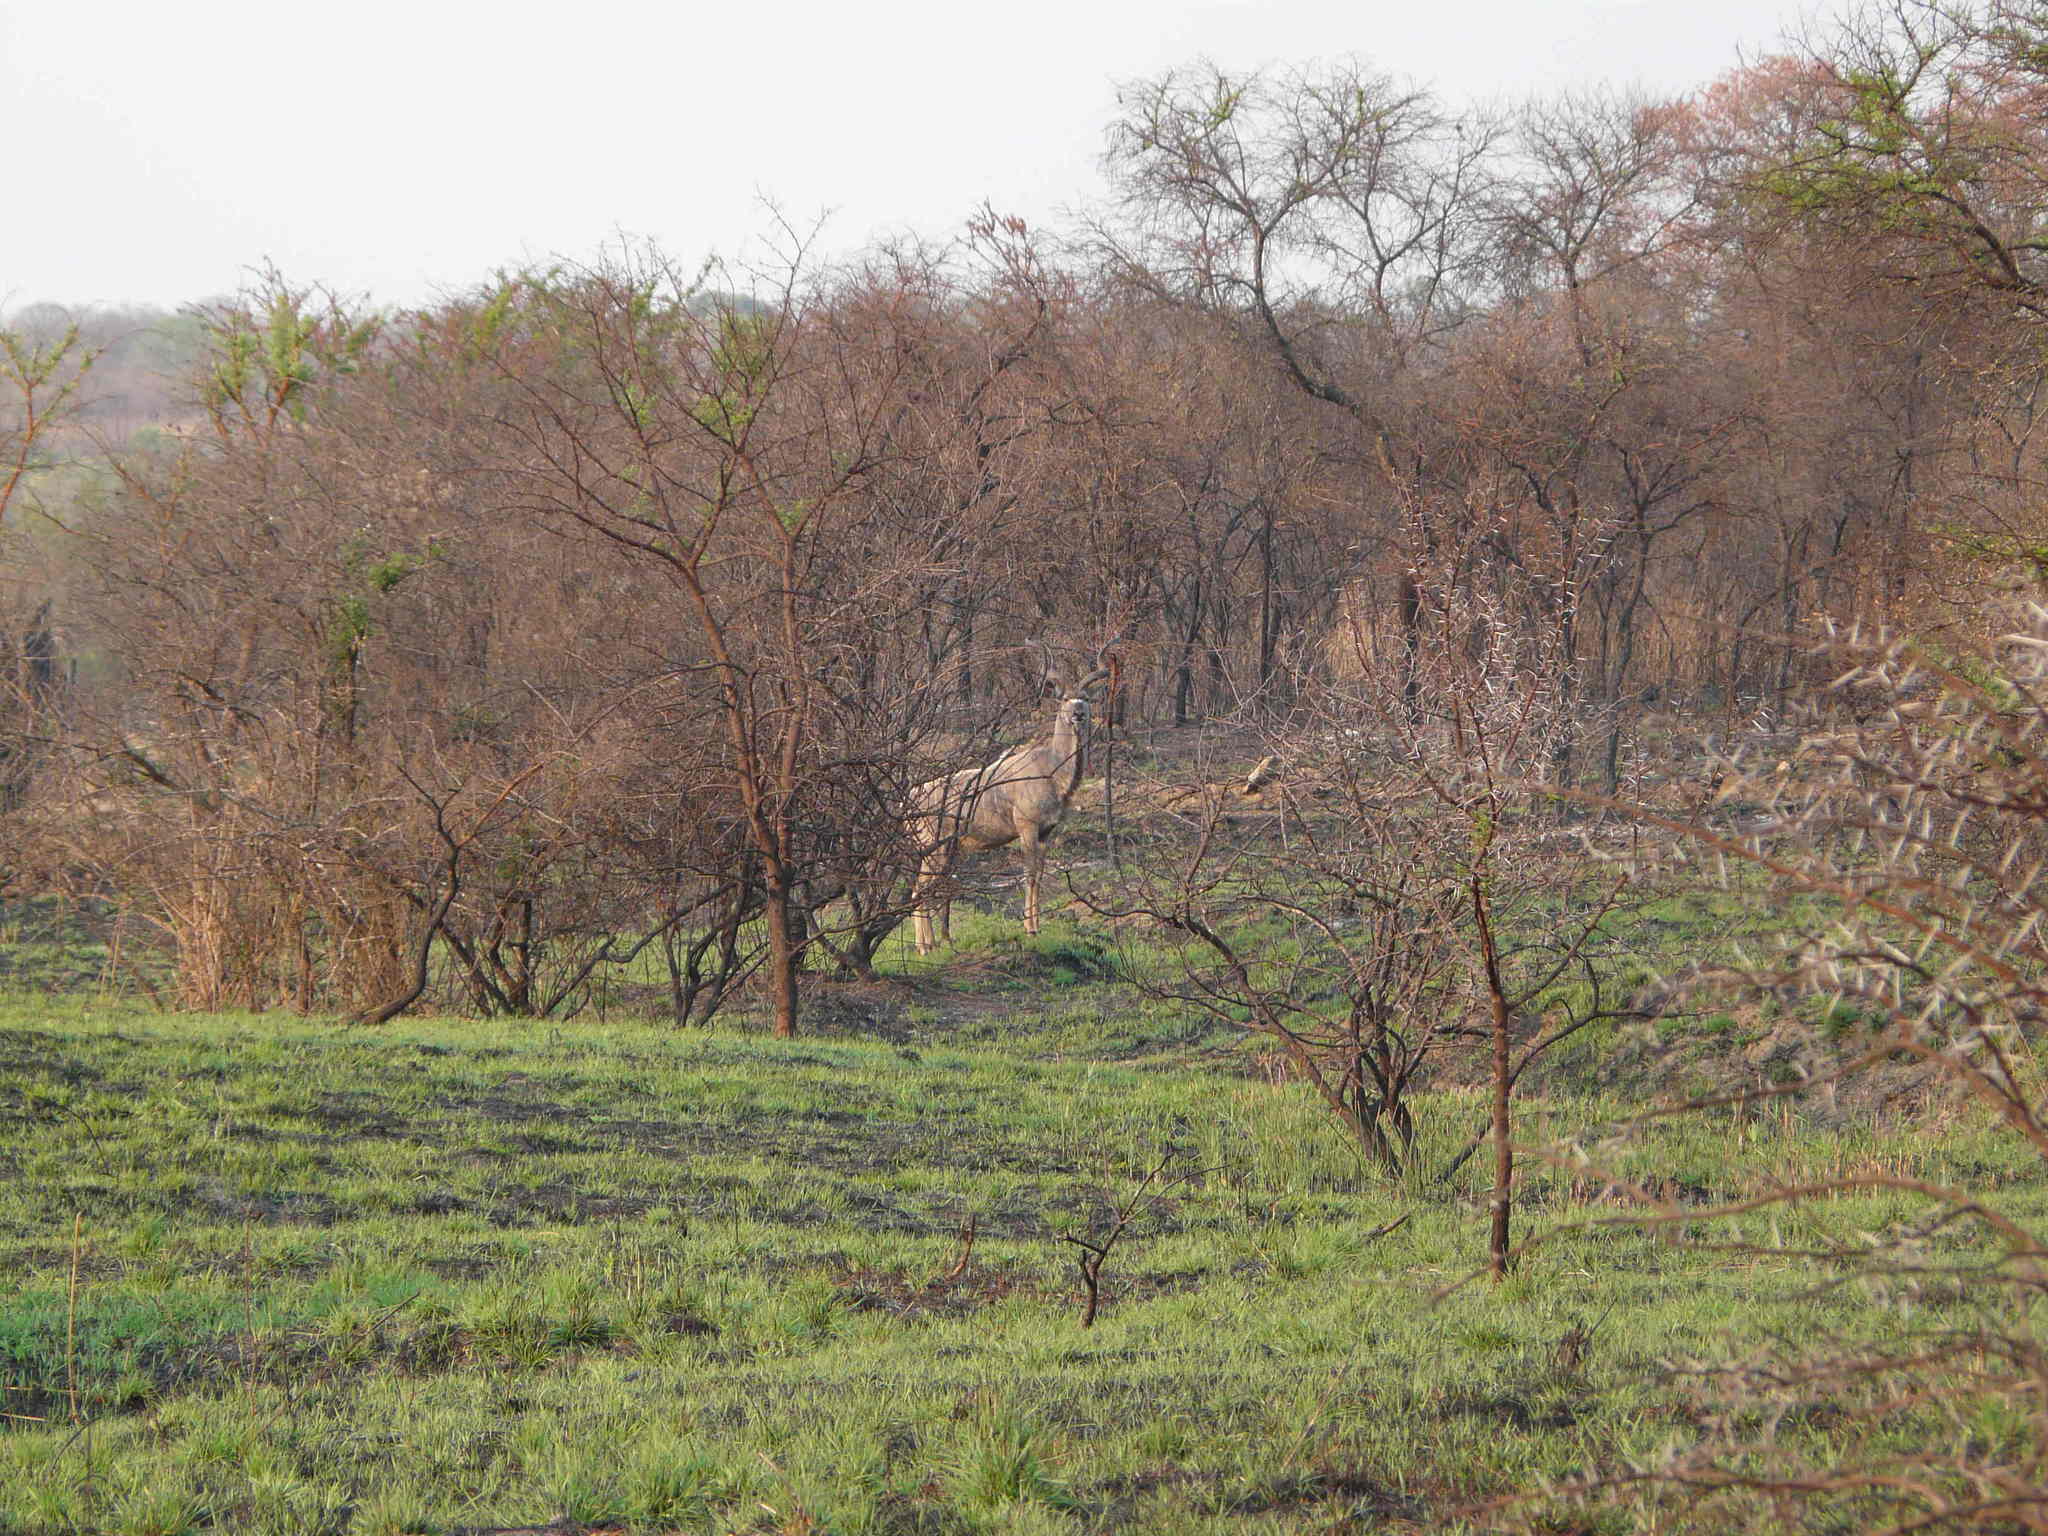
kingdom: Animalia
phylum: Chordata
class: Mammalia
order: Artiodactyla
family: Bovidae
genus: Tragelaphus
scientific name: Tragelaphus strepsiceros
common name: Greater kudu
